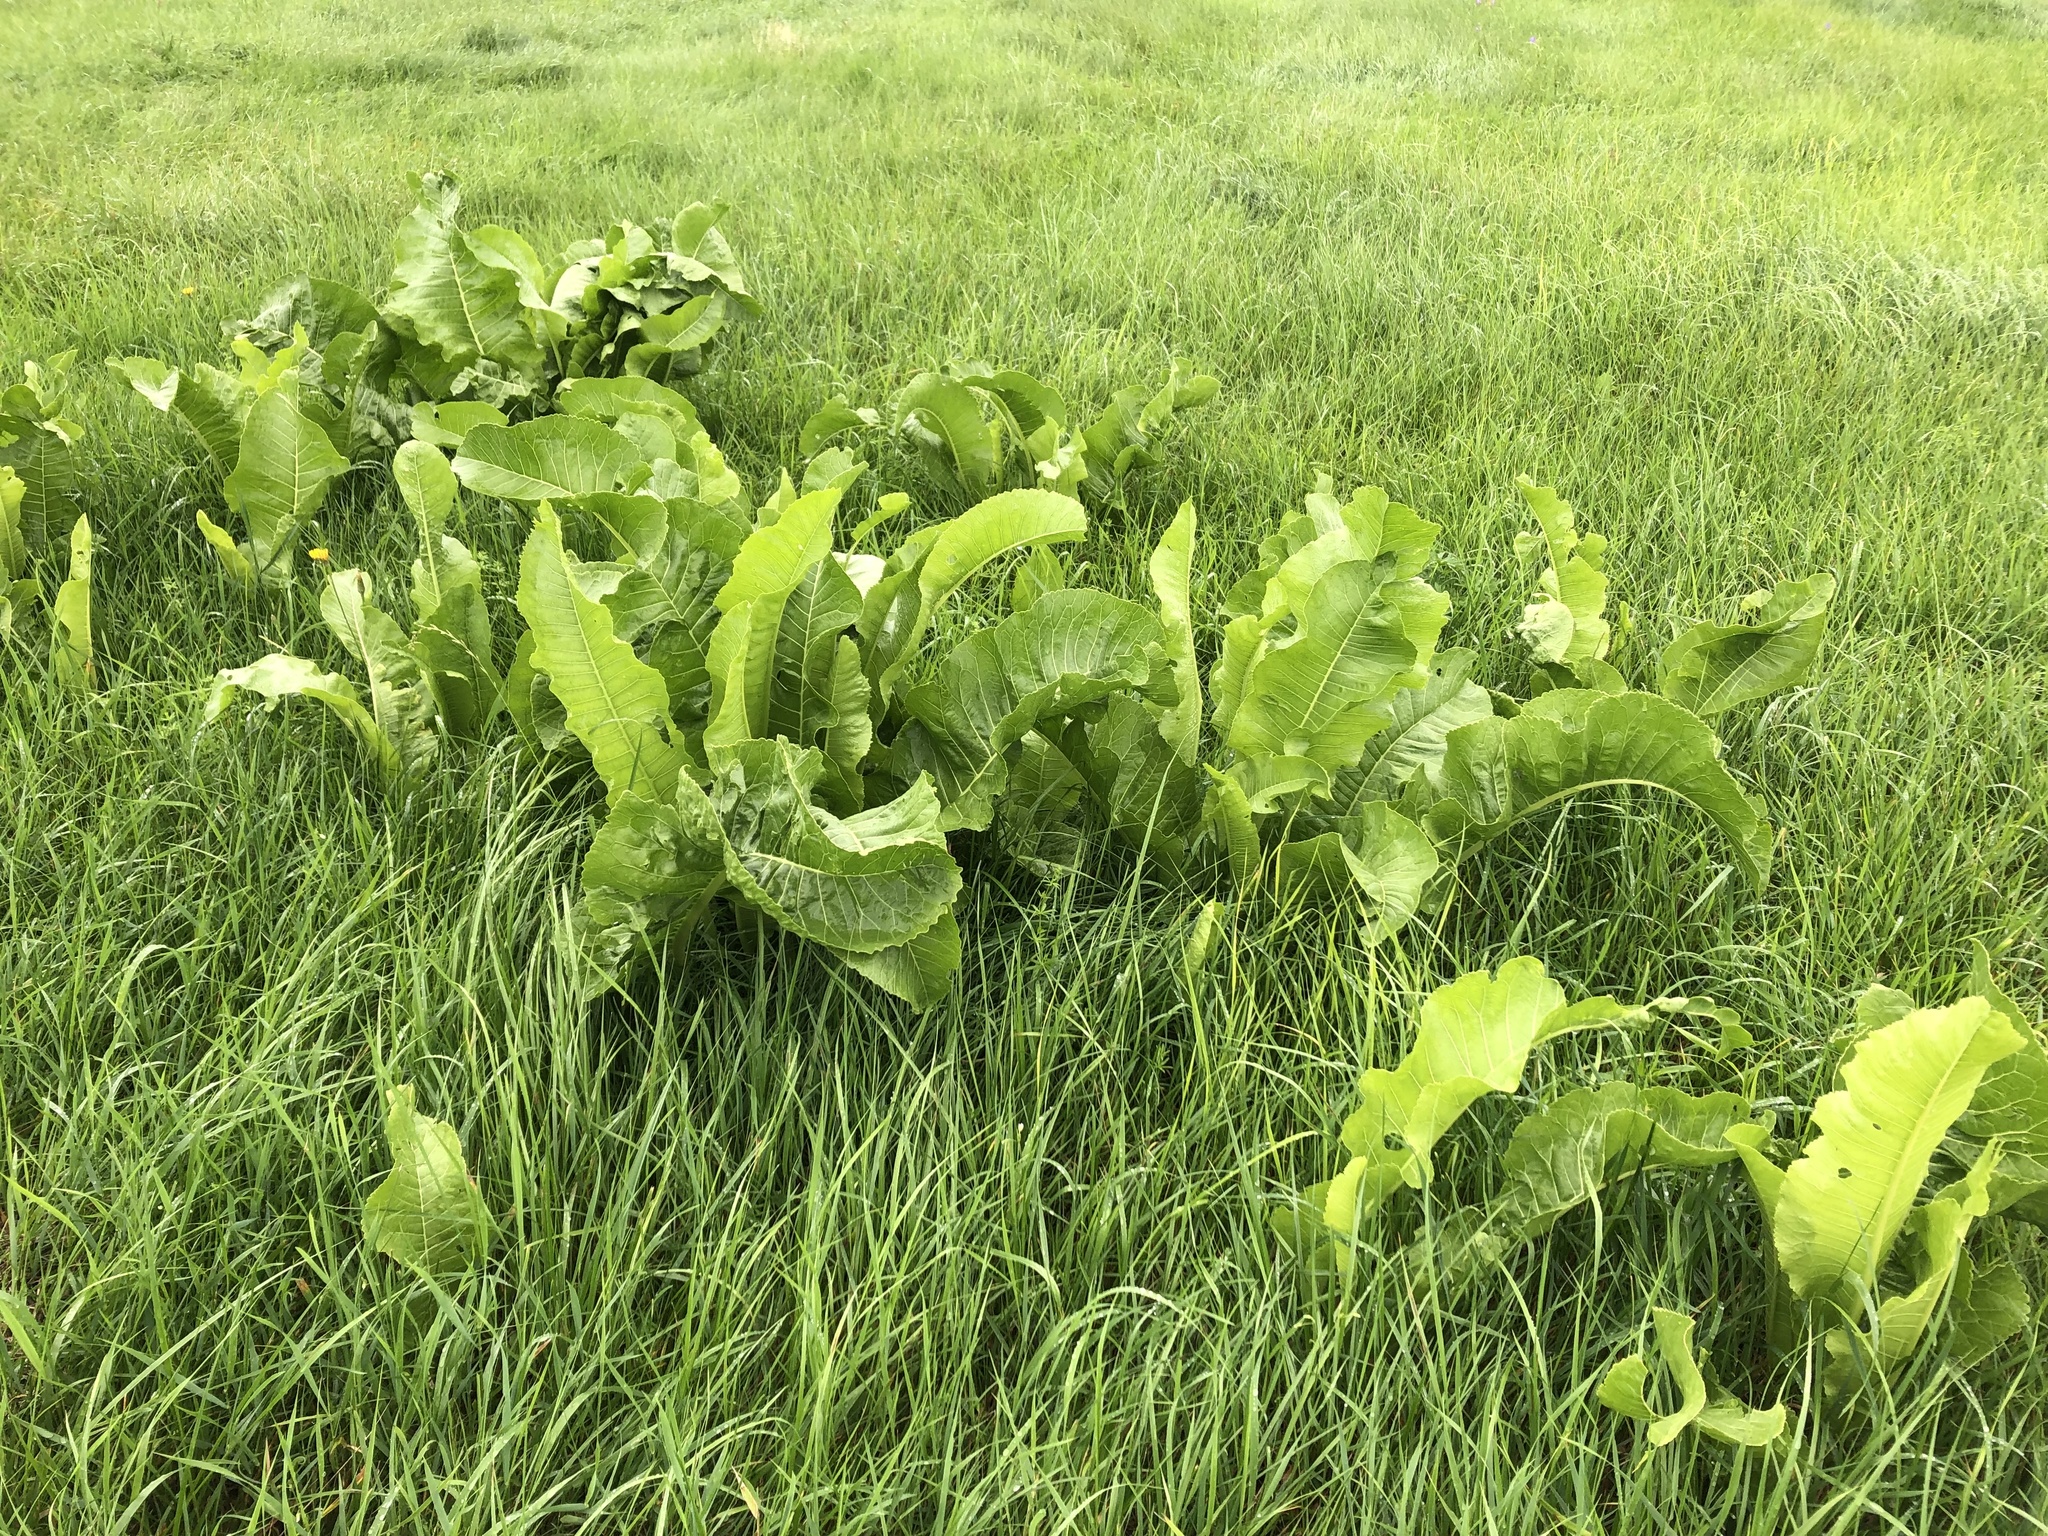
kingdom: Plantae
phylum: Tracheophyta
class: Magnoliopsida
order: Brassicales
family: Brassicaceae
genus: Armoracia
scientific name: Armoracia rusticana
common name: Horseradish
